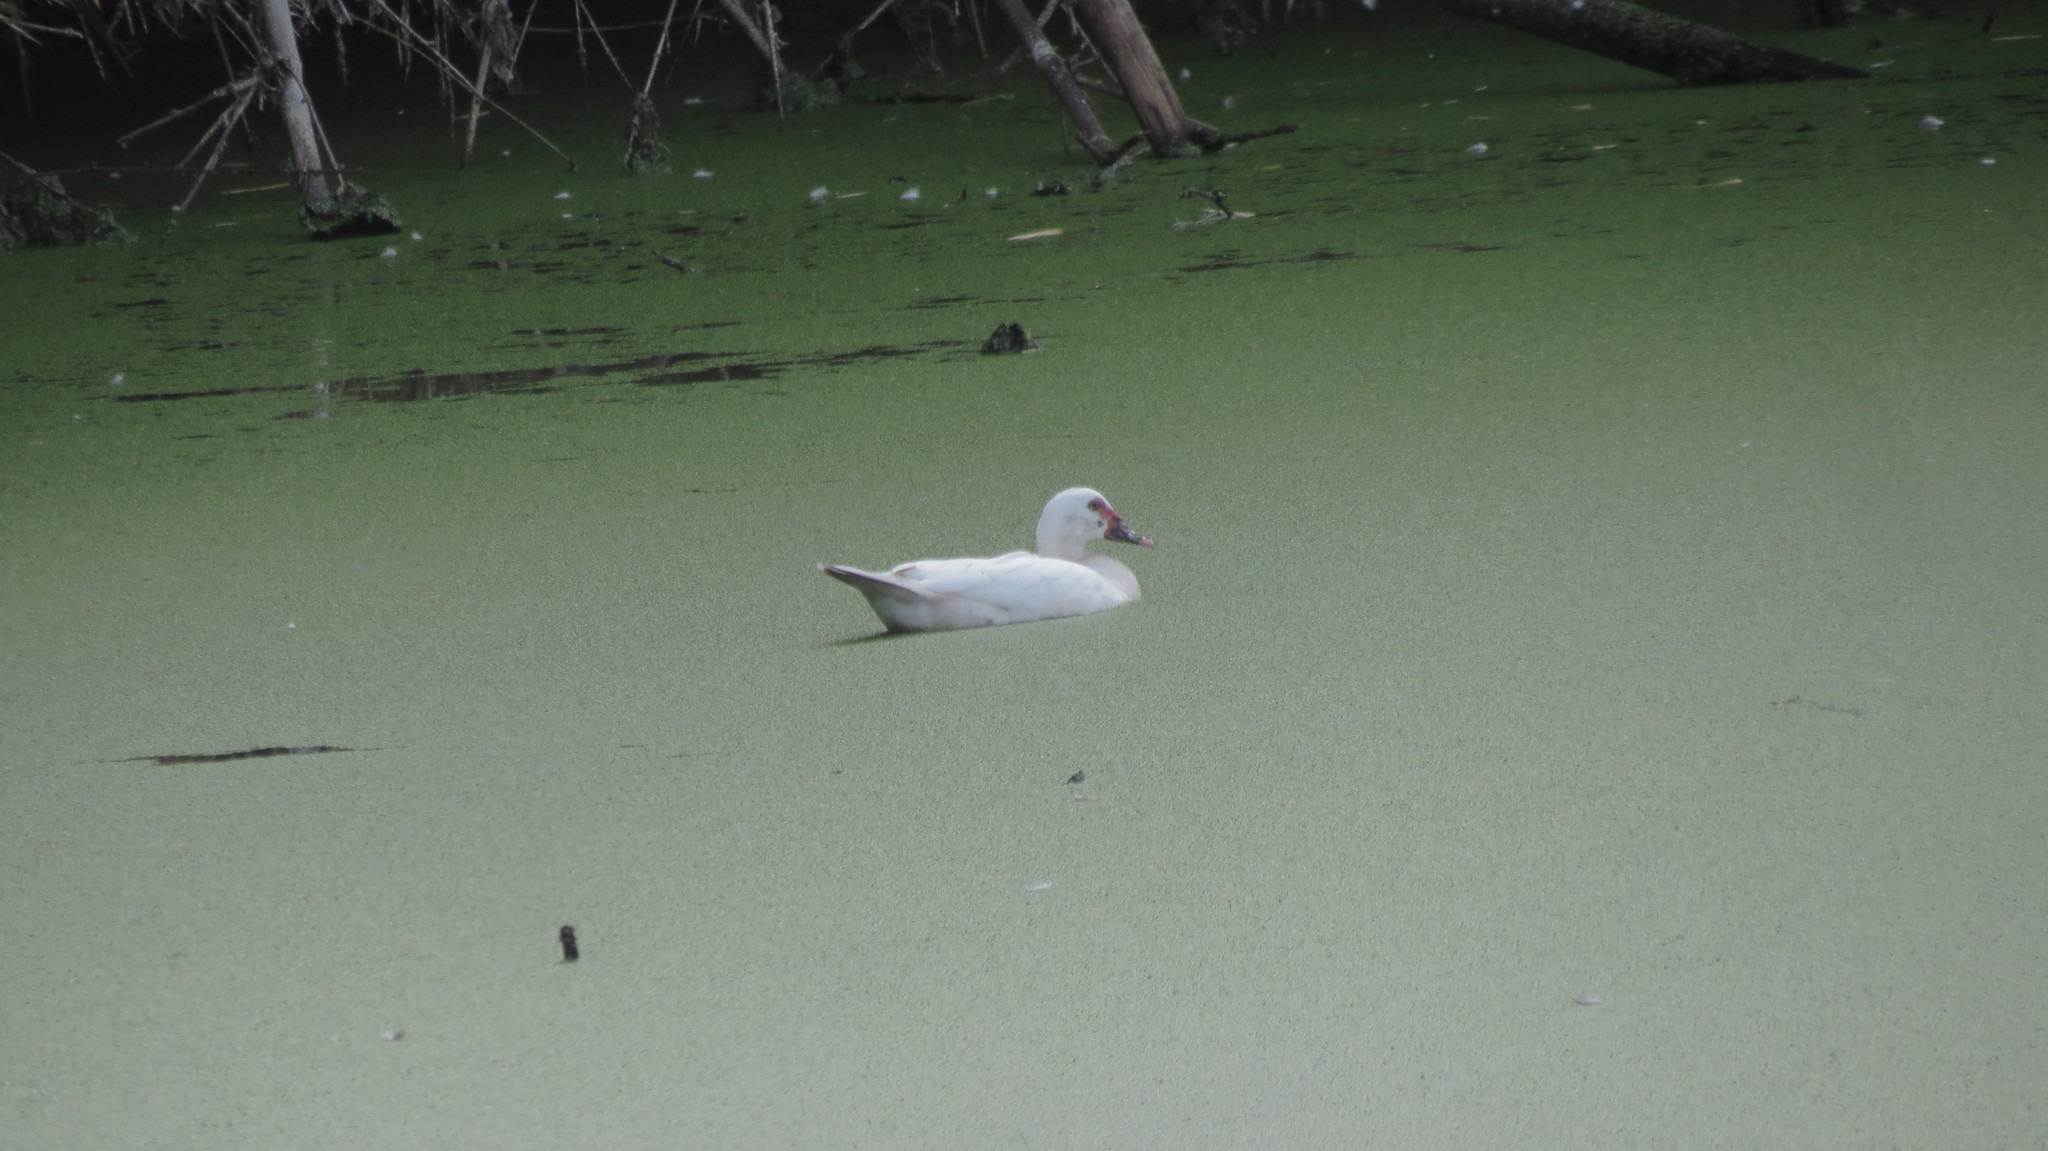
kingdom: Animalia
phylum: Chordata
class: Aves
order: Anseriformes
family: Anatidae
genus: Cairina
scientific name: Cairina moschata
